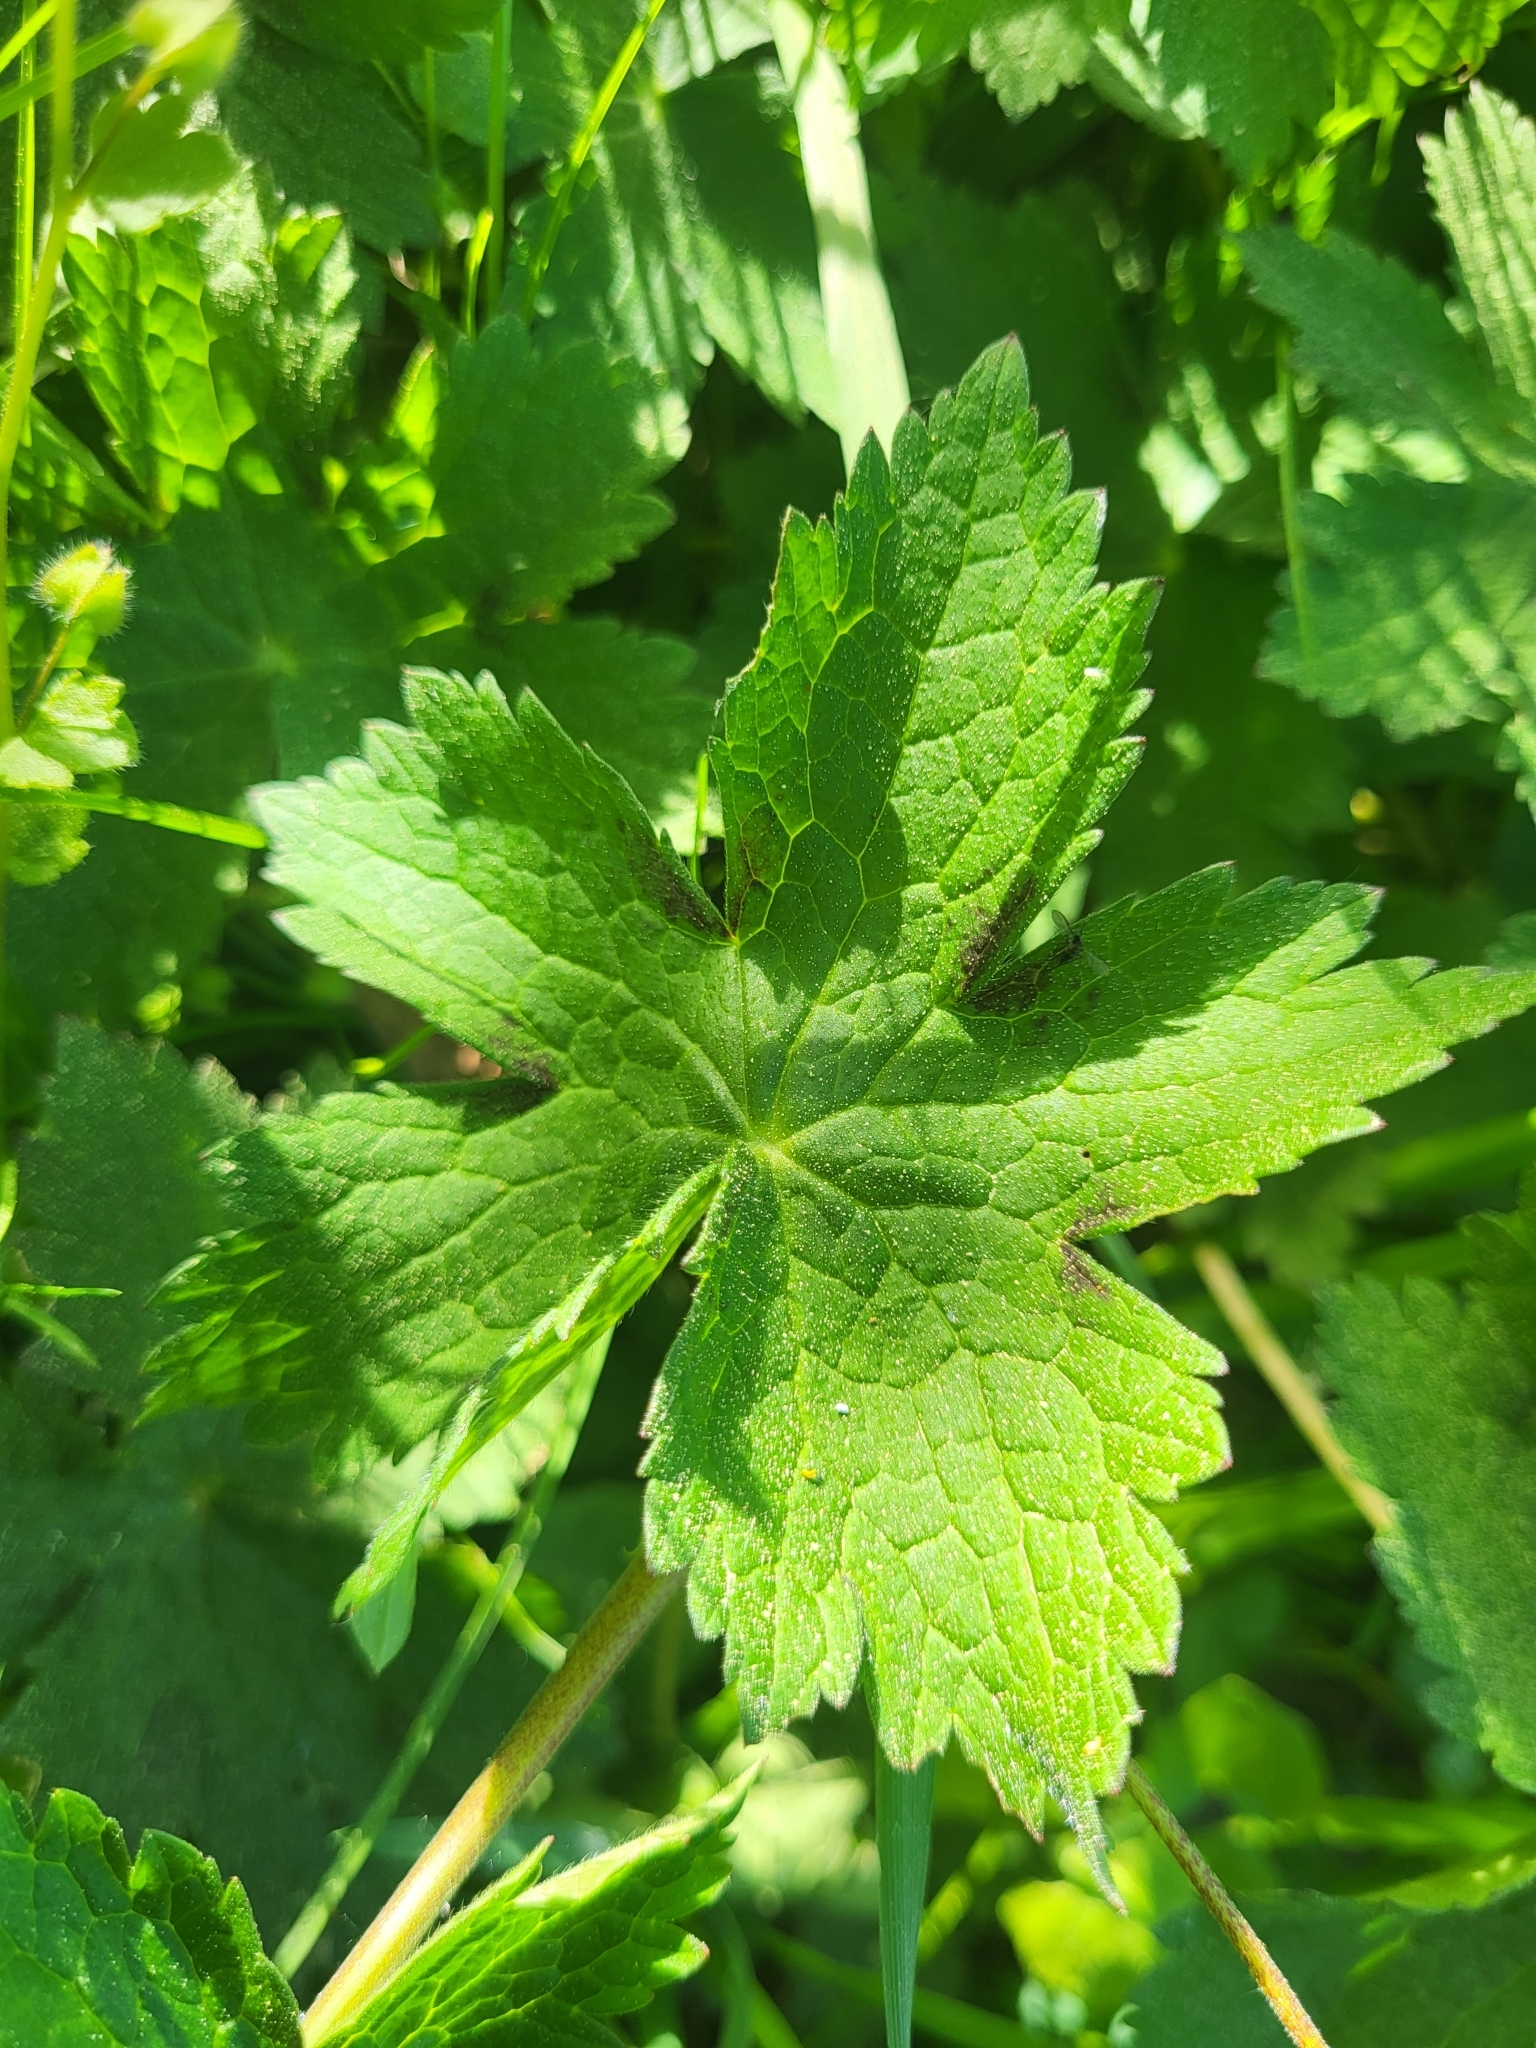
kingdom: Plantae
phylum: Tracheophyta
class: Magnoliopsida
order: Geraniales
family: Geraniaceae
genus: Geranium
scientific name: Geranium phaeum
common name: Dusky crane's-bill
